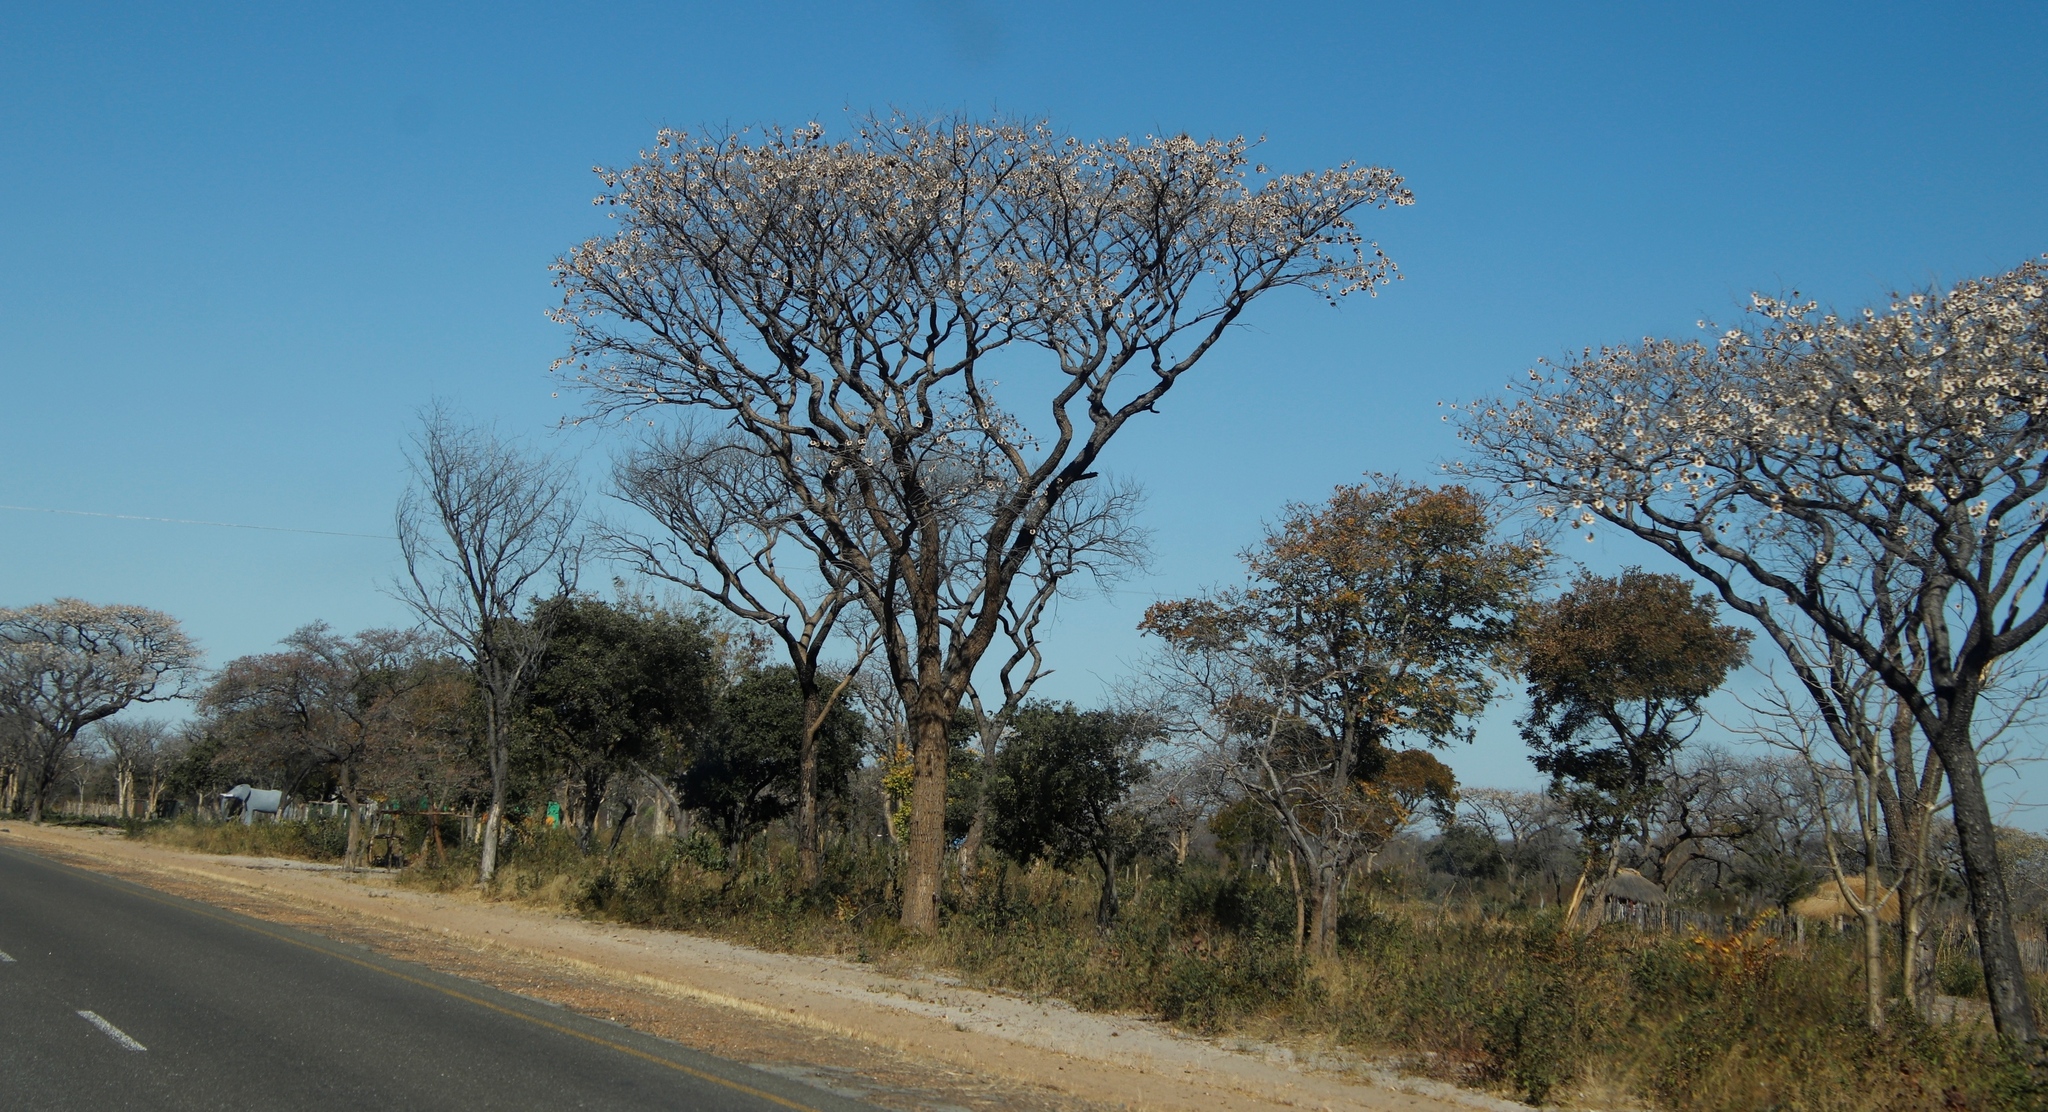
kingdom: Plantae
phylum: Tracheophyta
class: Magnoliopsida
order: Fabales
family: Fabaceae
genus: Pterocarpus
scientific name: Pterocarpus angolensis
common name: Bloodwood tree
